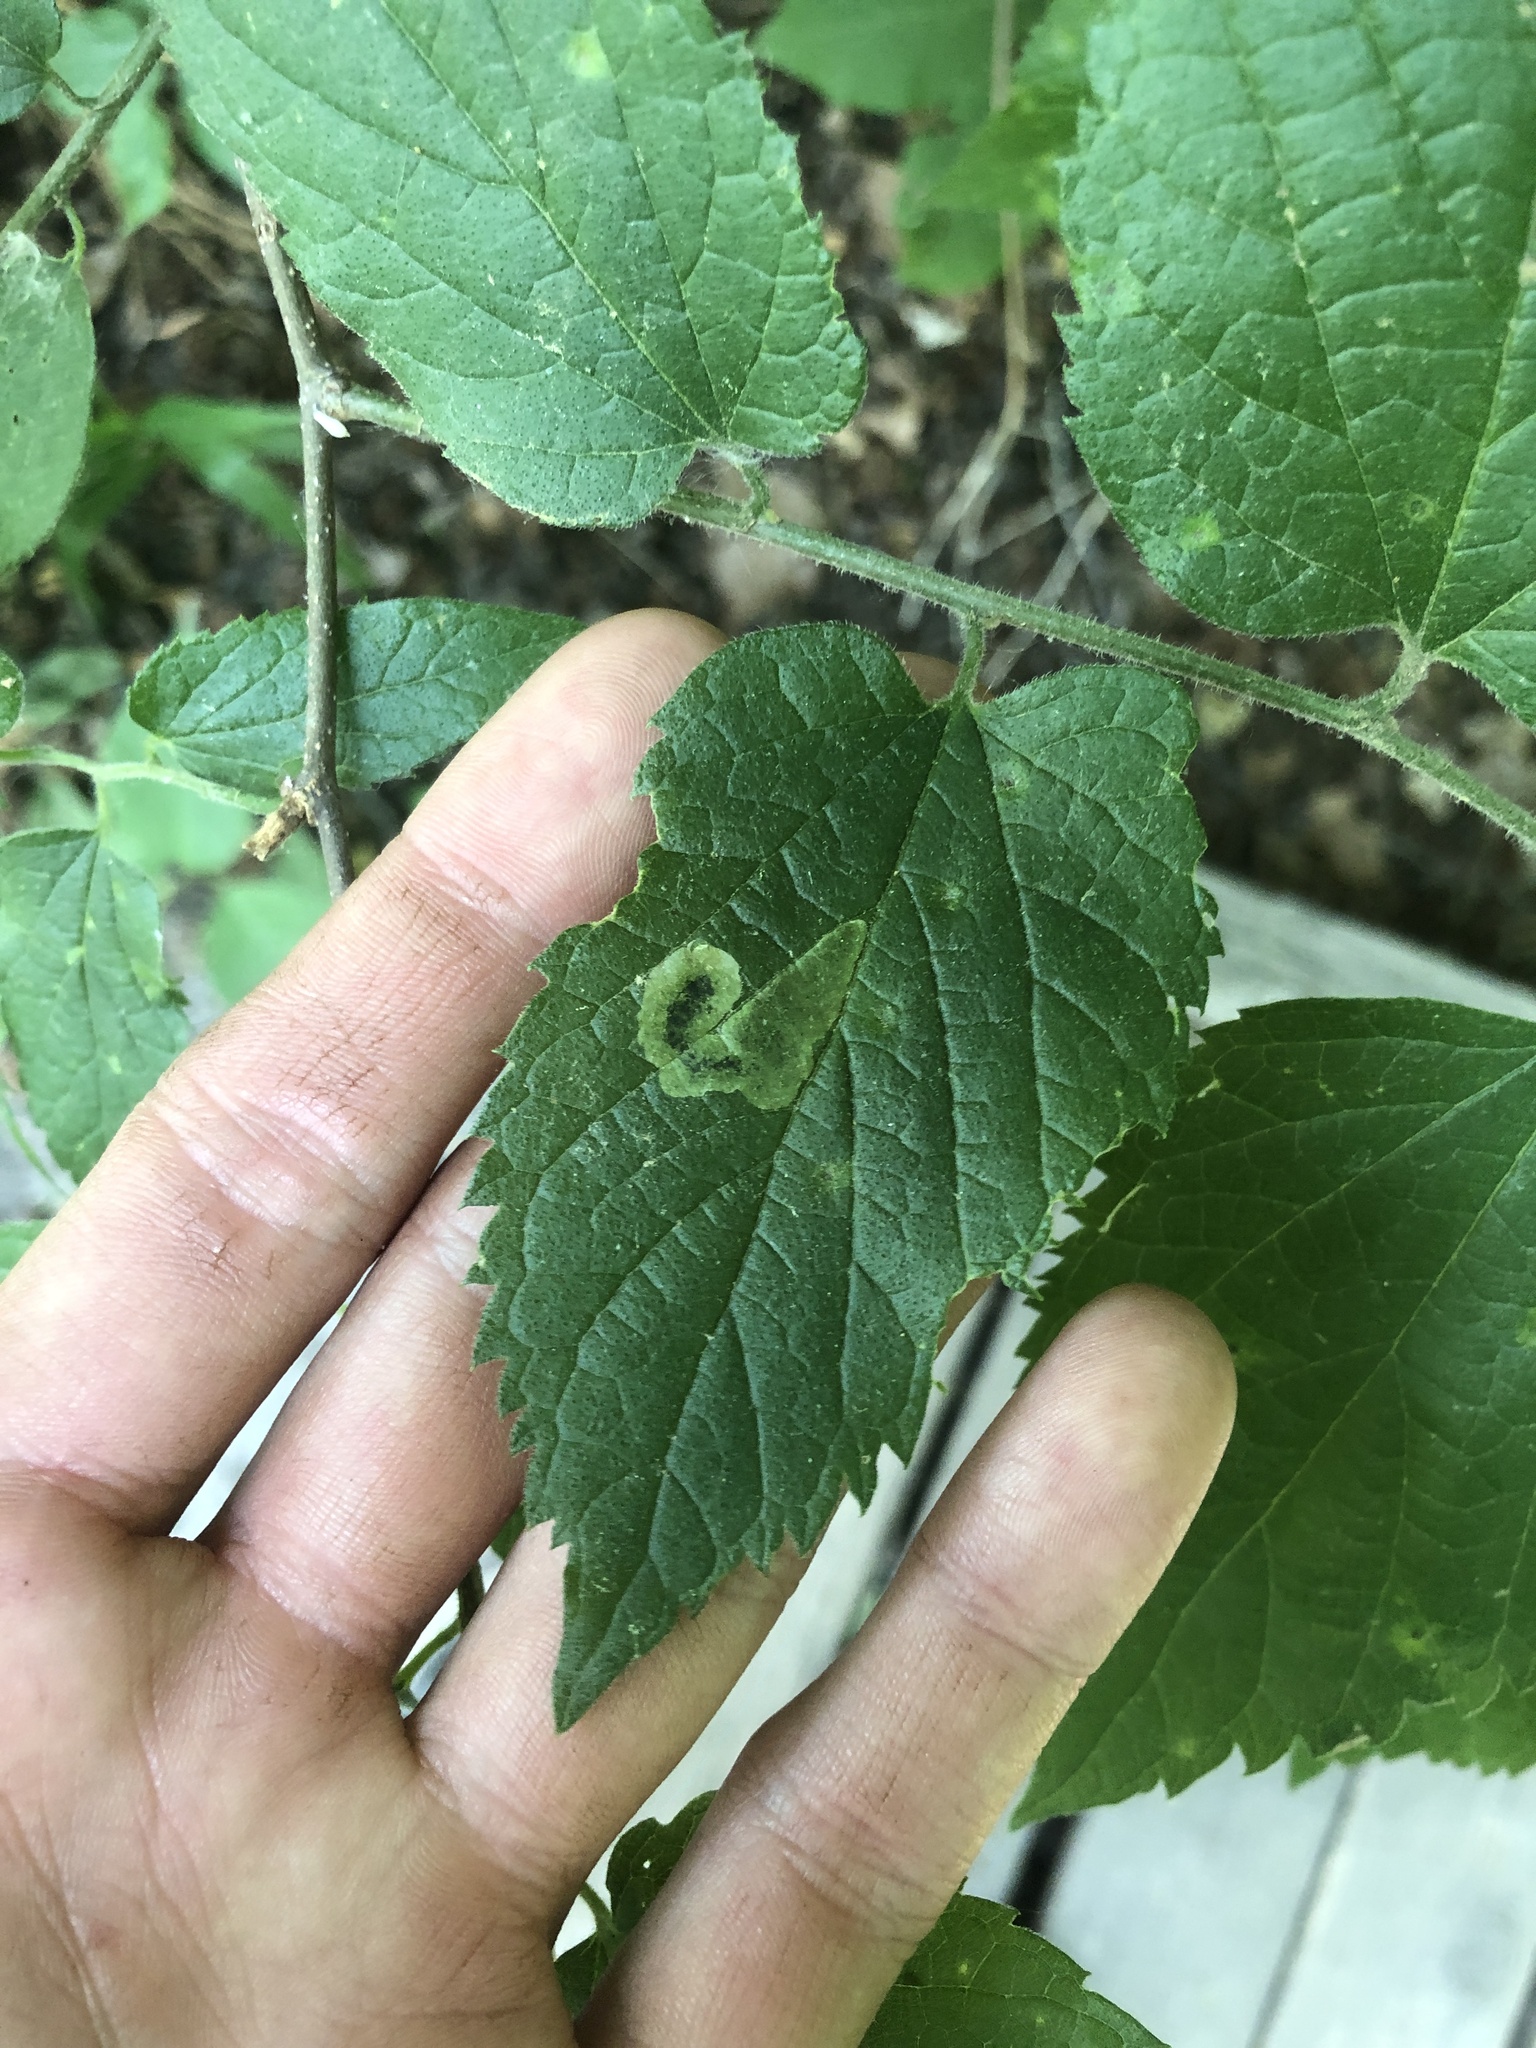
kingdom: Animalia
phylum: Arthropoda
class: Insecta
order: Diptera
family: Agromyzidae
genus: Agromyza
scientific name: Agromyza pallidiseta
